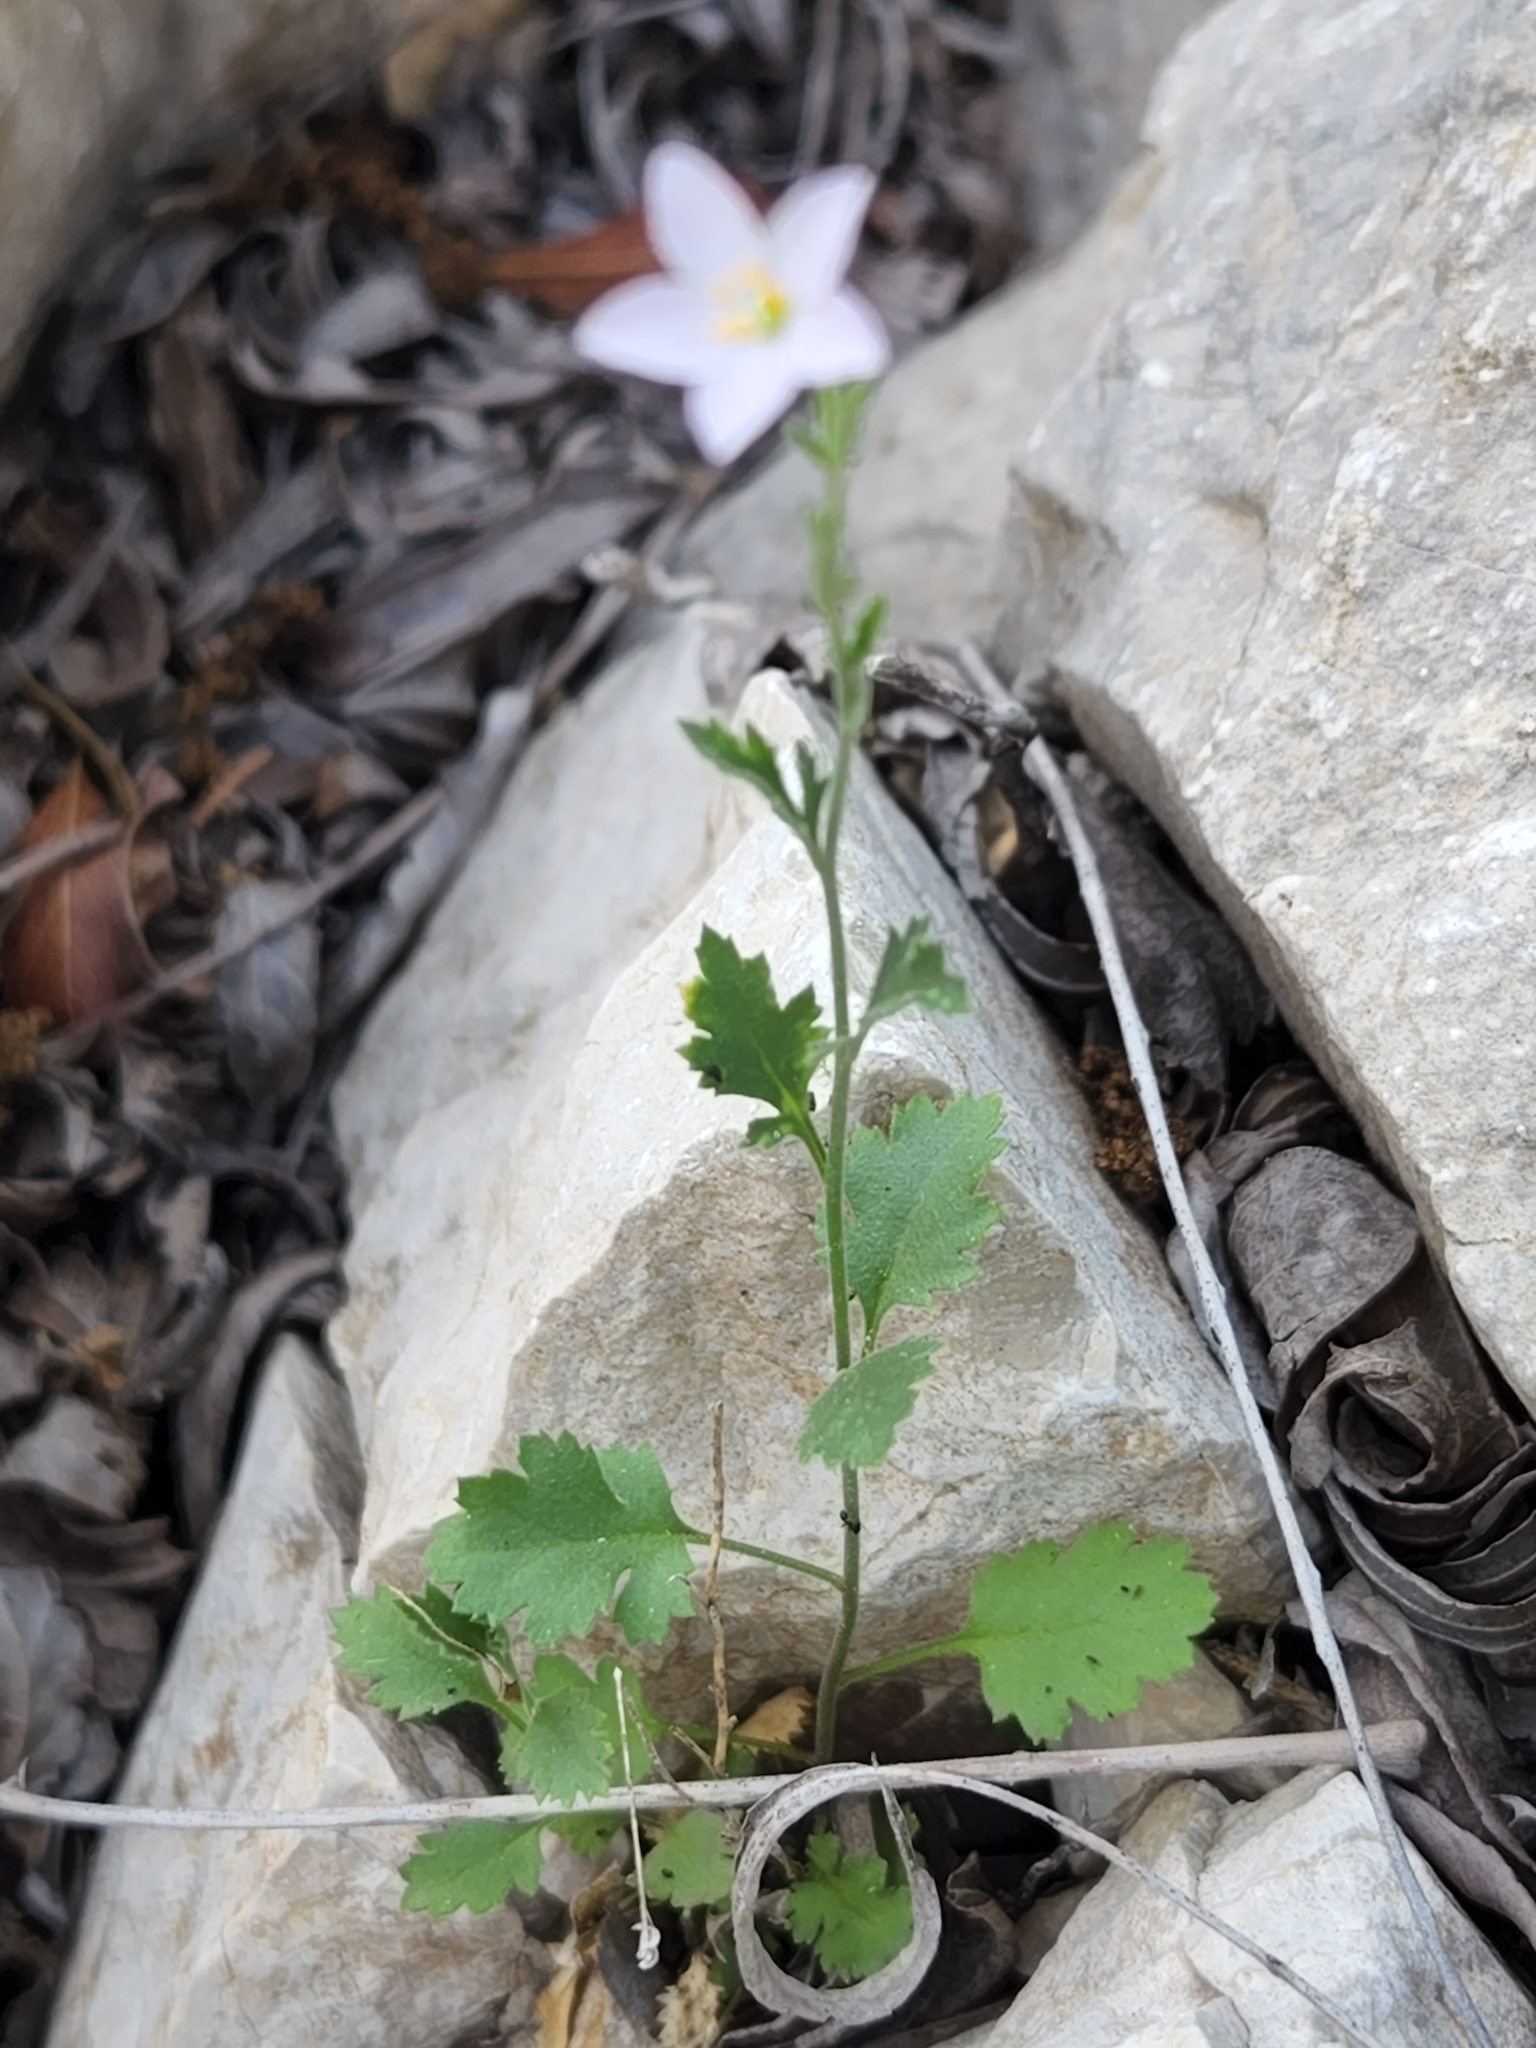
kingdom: Plantae
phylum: Tracheophyta
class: Magnoliopsida
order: Ericales
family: Polemoniaceae
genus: Giliastrum
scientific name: Giliastrum incisum
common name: Splitleaf gilia
